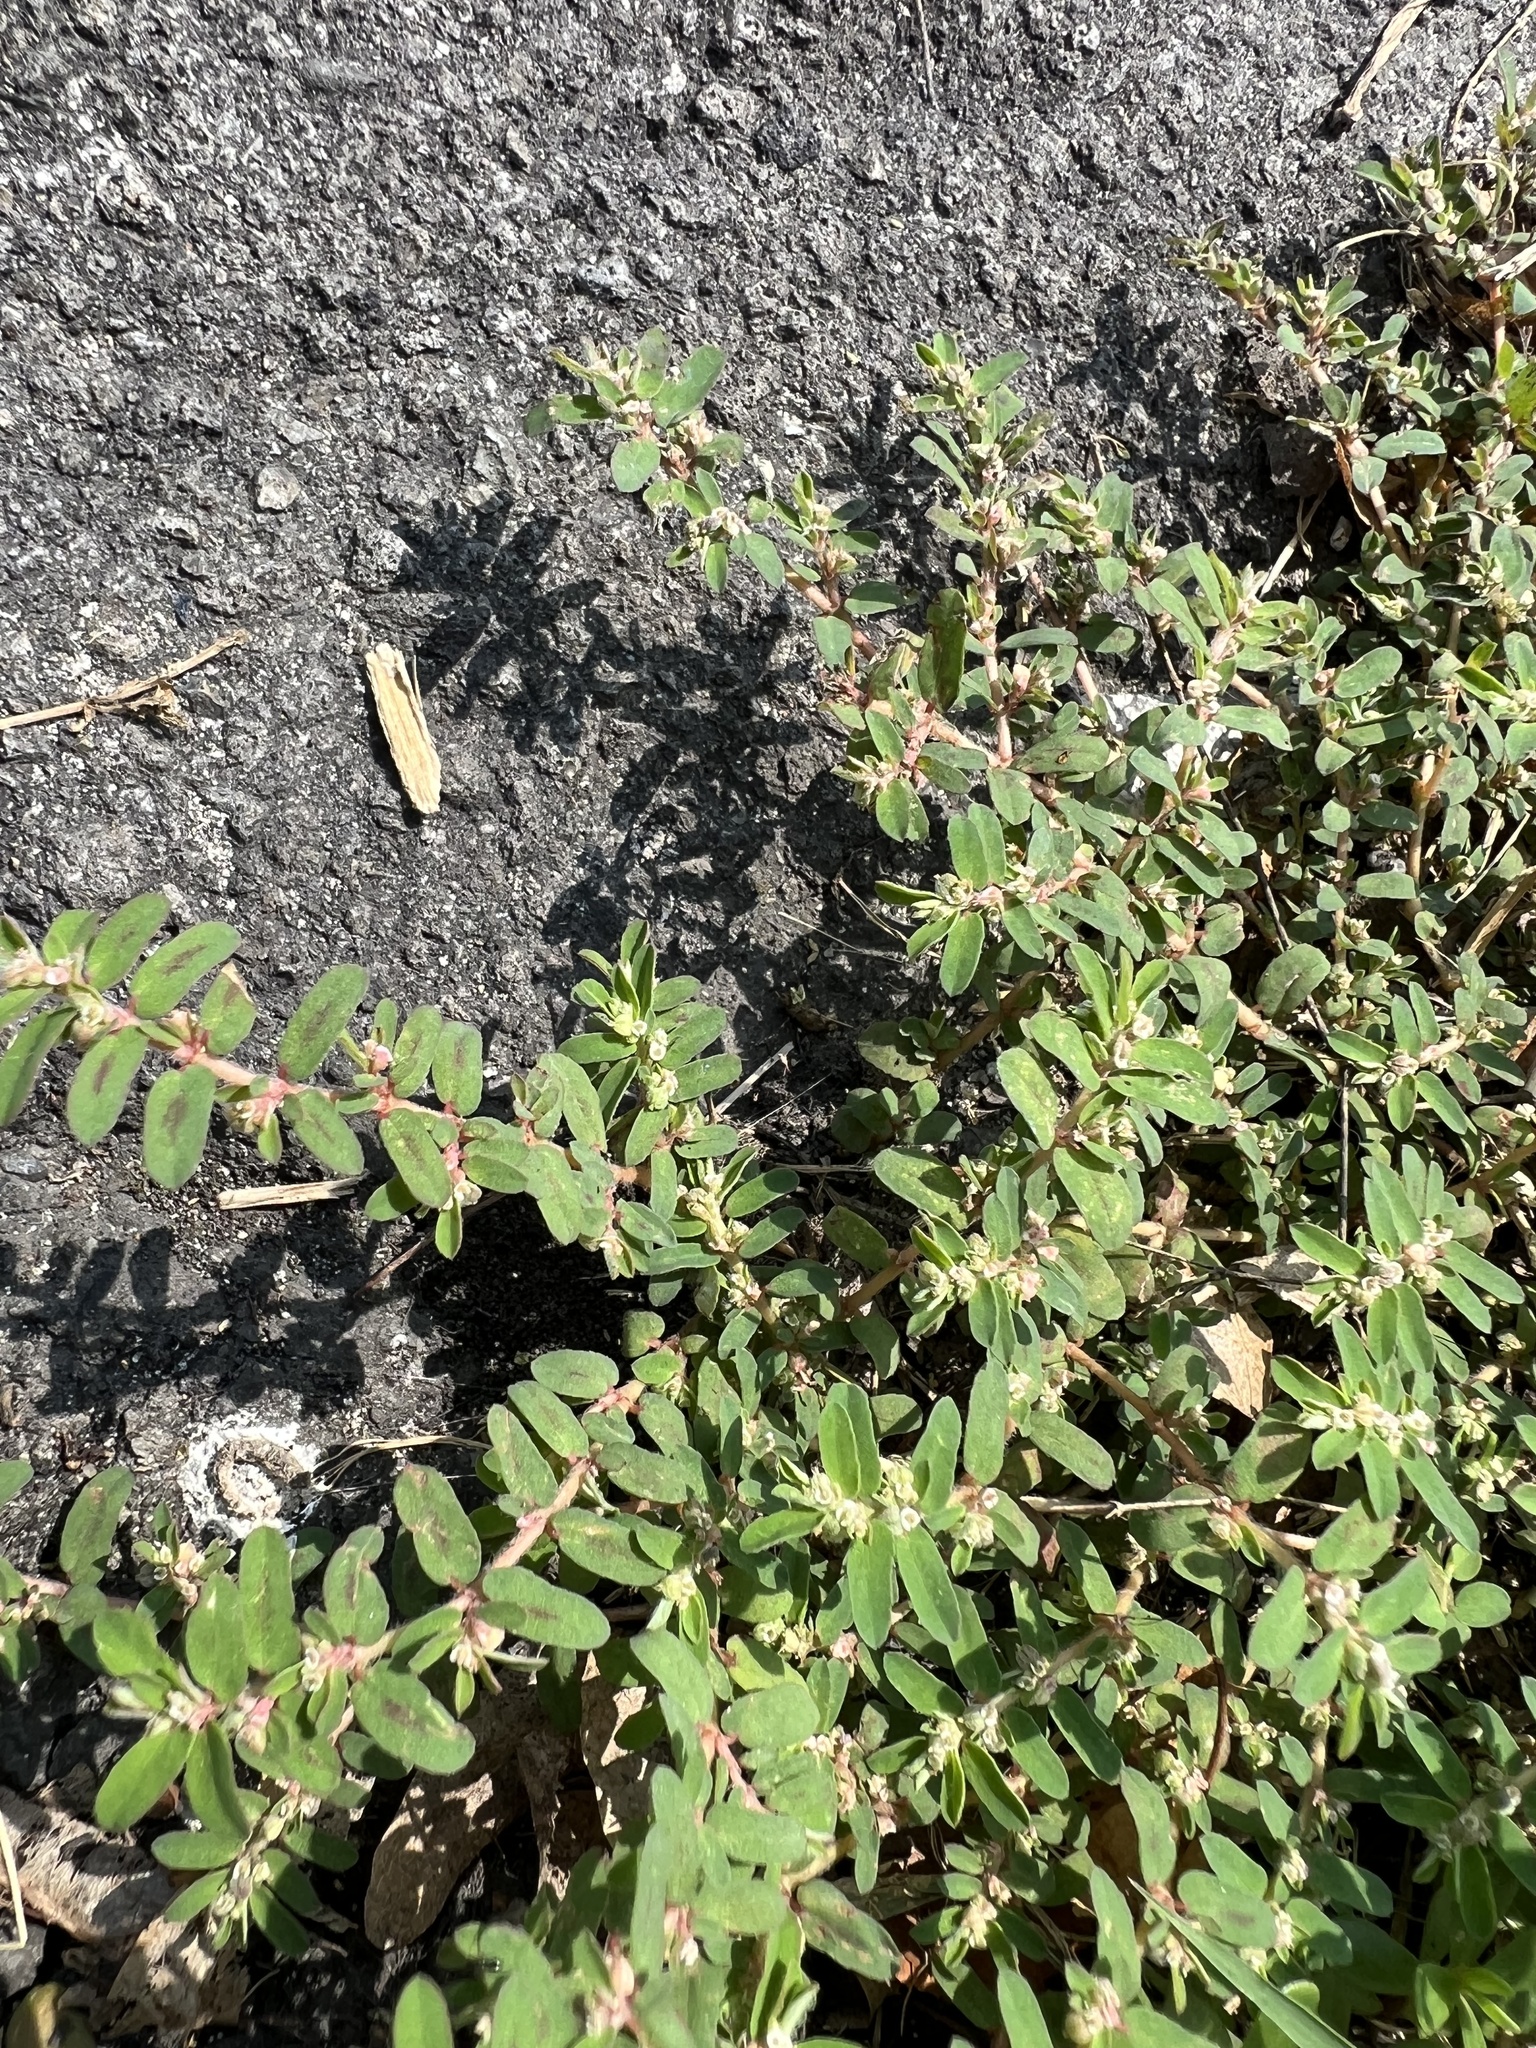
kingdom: Plantae
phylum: Tracheophyta
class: Magnoliopsida
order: Malpighiales
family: Euphorbiaceae
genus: Euphorbia
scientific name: Euphorbia maculata
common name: Spotted spurge
